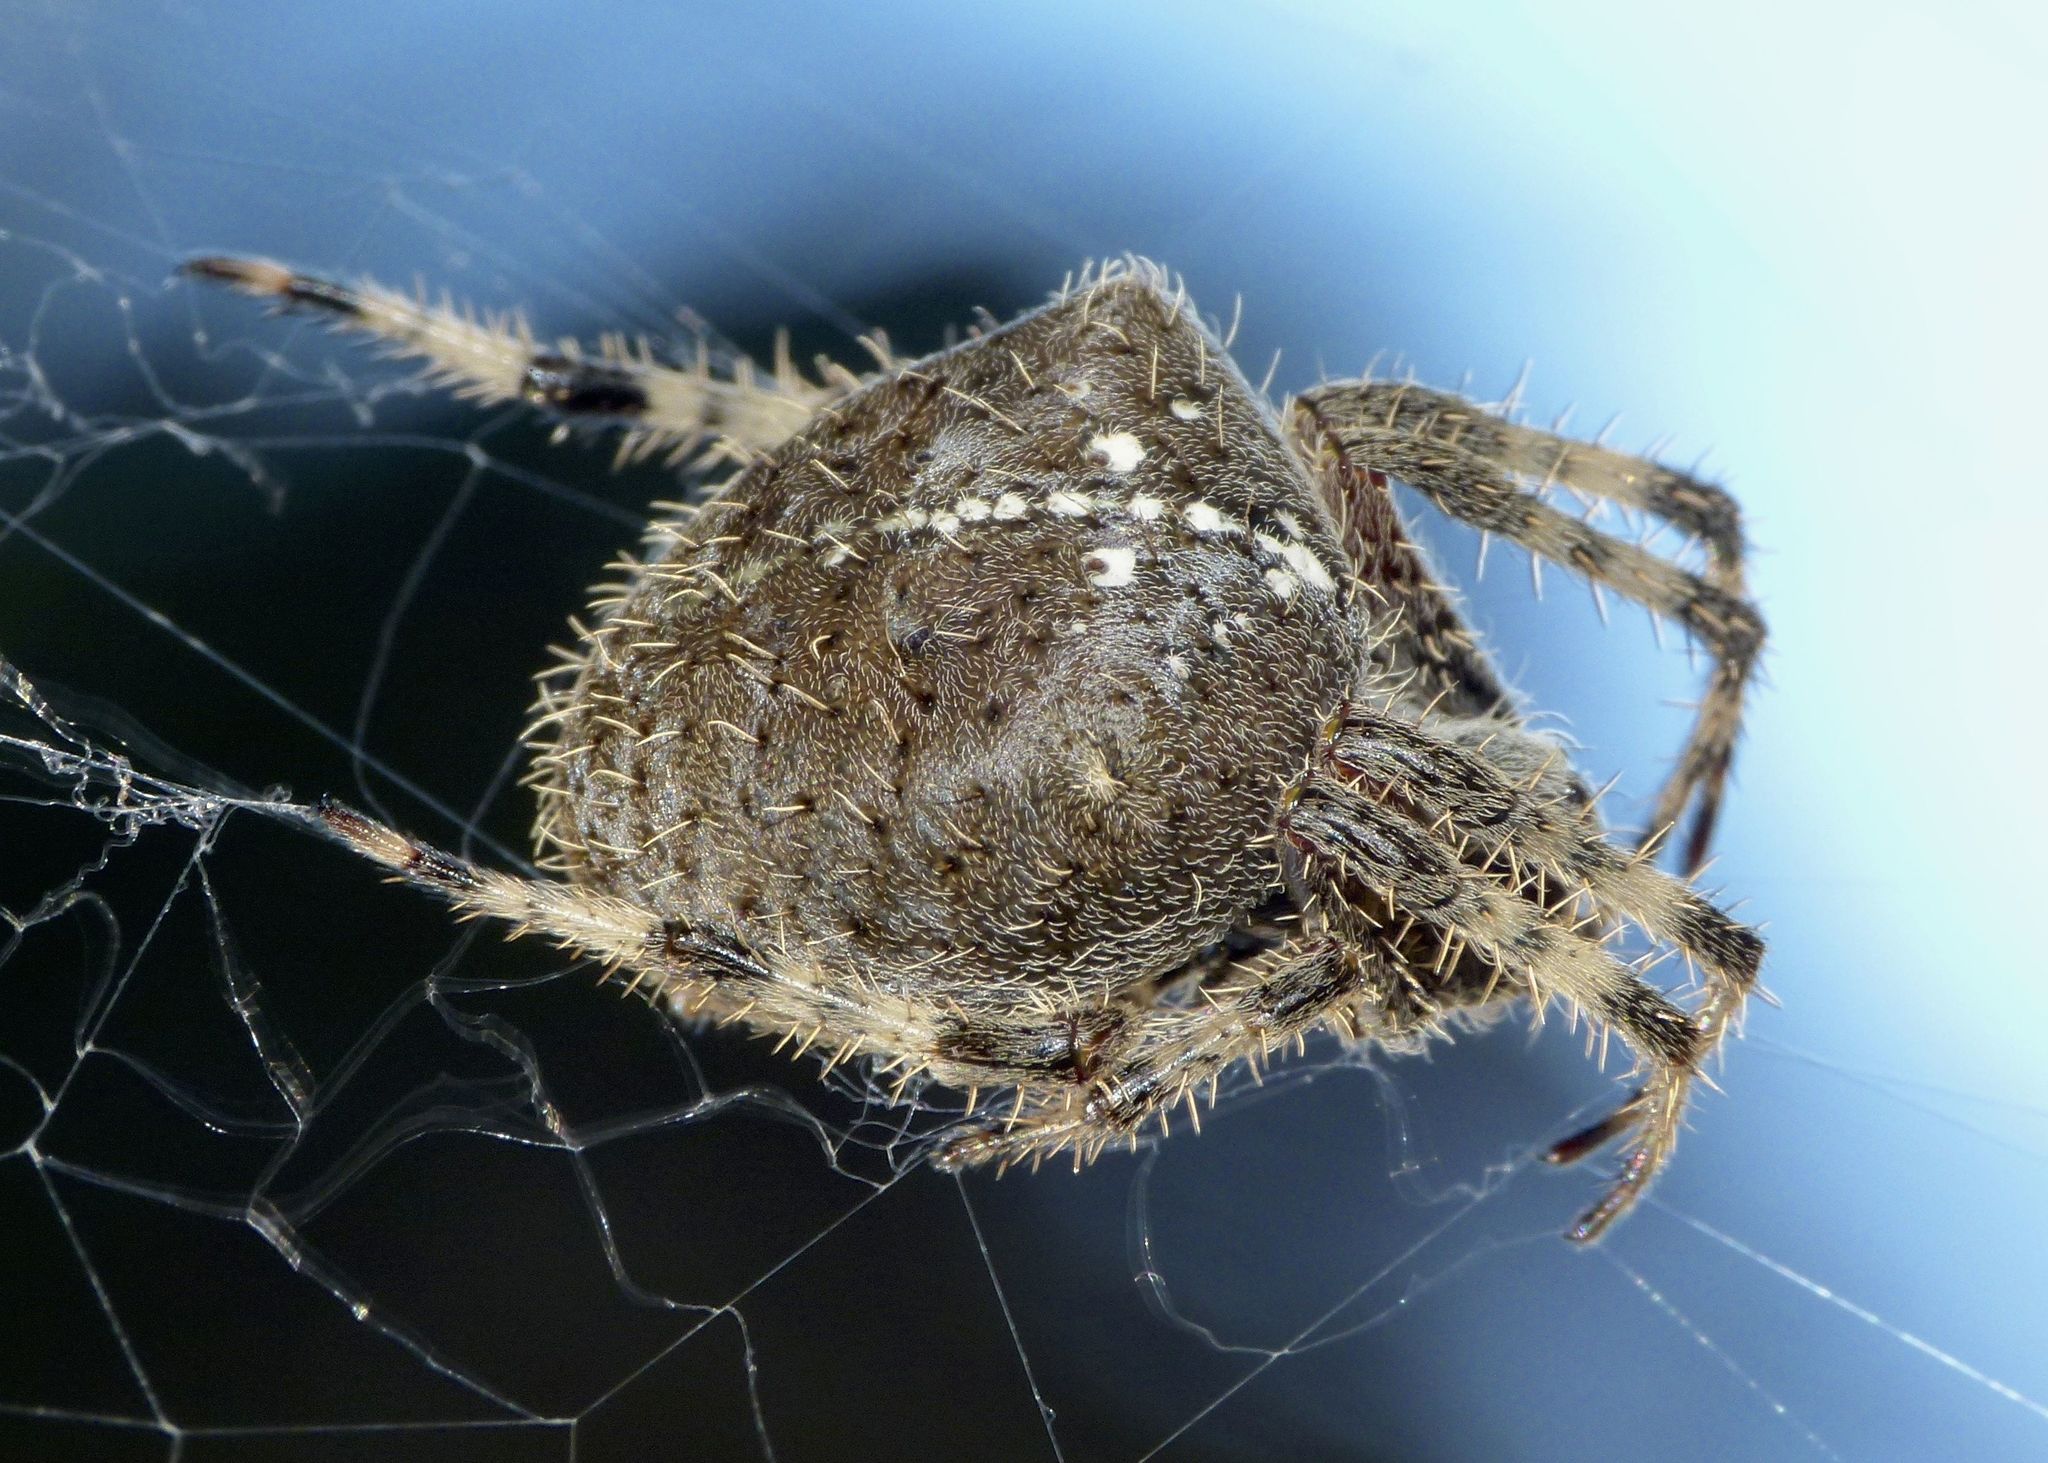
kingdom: Animalia
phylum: Arthropoda
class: Arachnida
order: Araneae
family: Araneidae
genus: Araneus
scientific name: Araneus gemma
